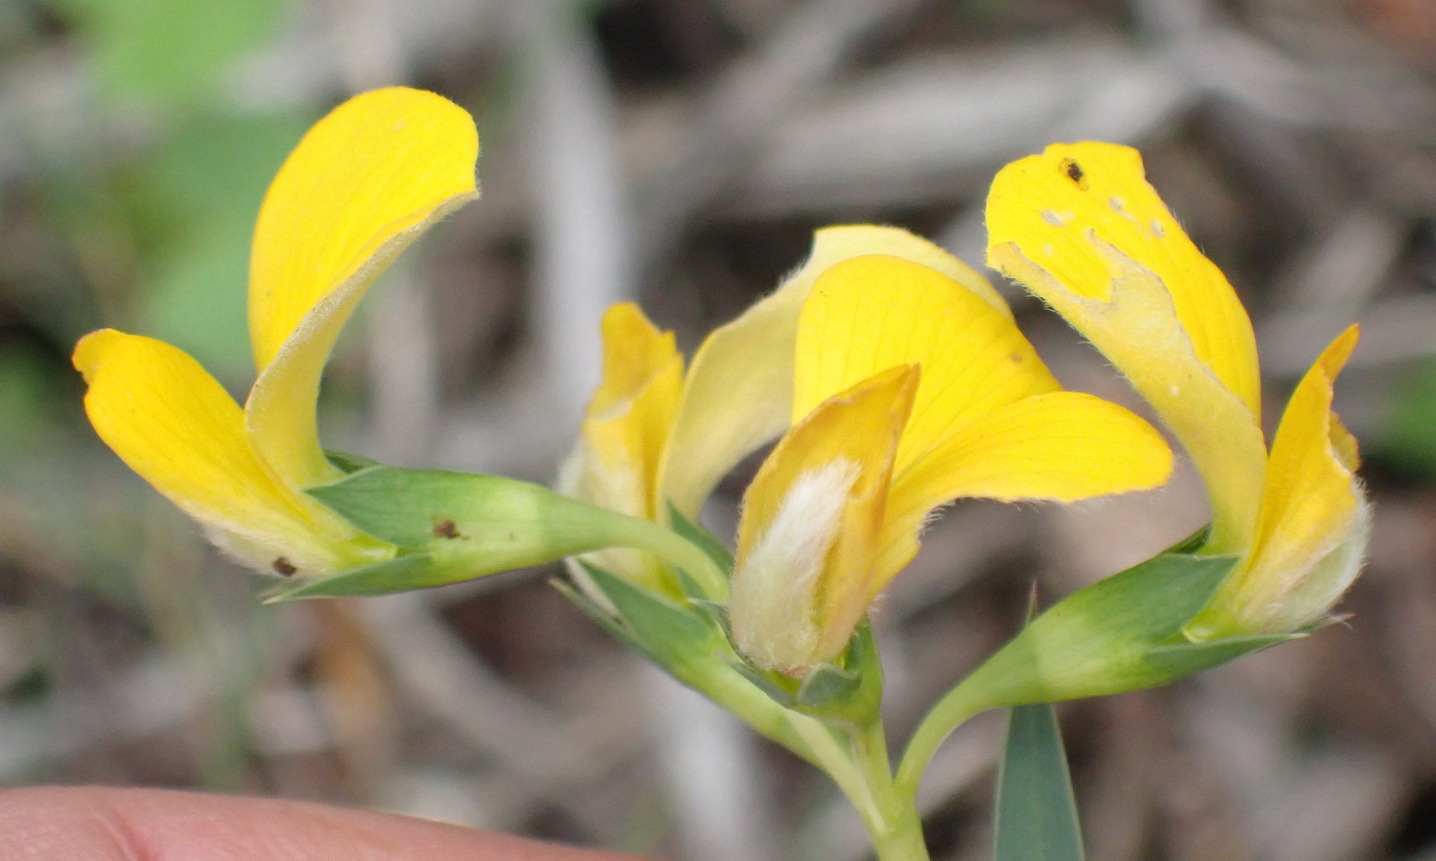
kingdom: Plantae
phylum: Tracheophyta
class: Magnoliopsida
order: Fabales
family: Fabaceae
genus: Aspalathus
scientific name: Aspalathus angustifolia
